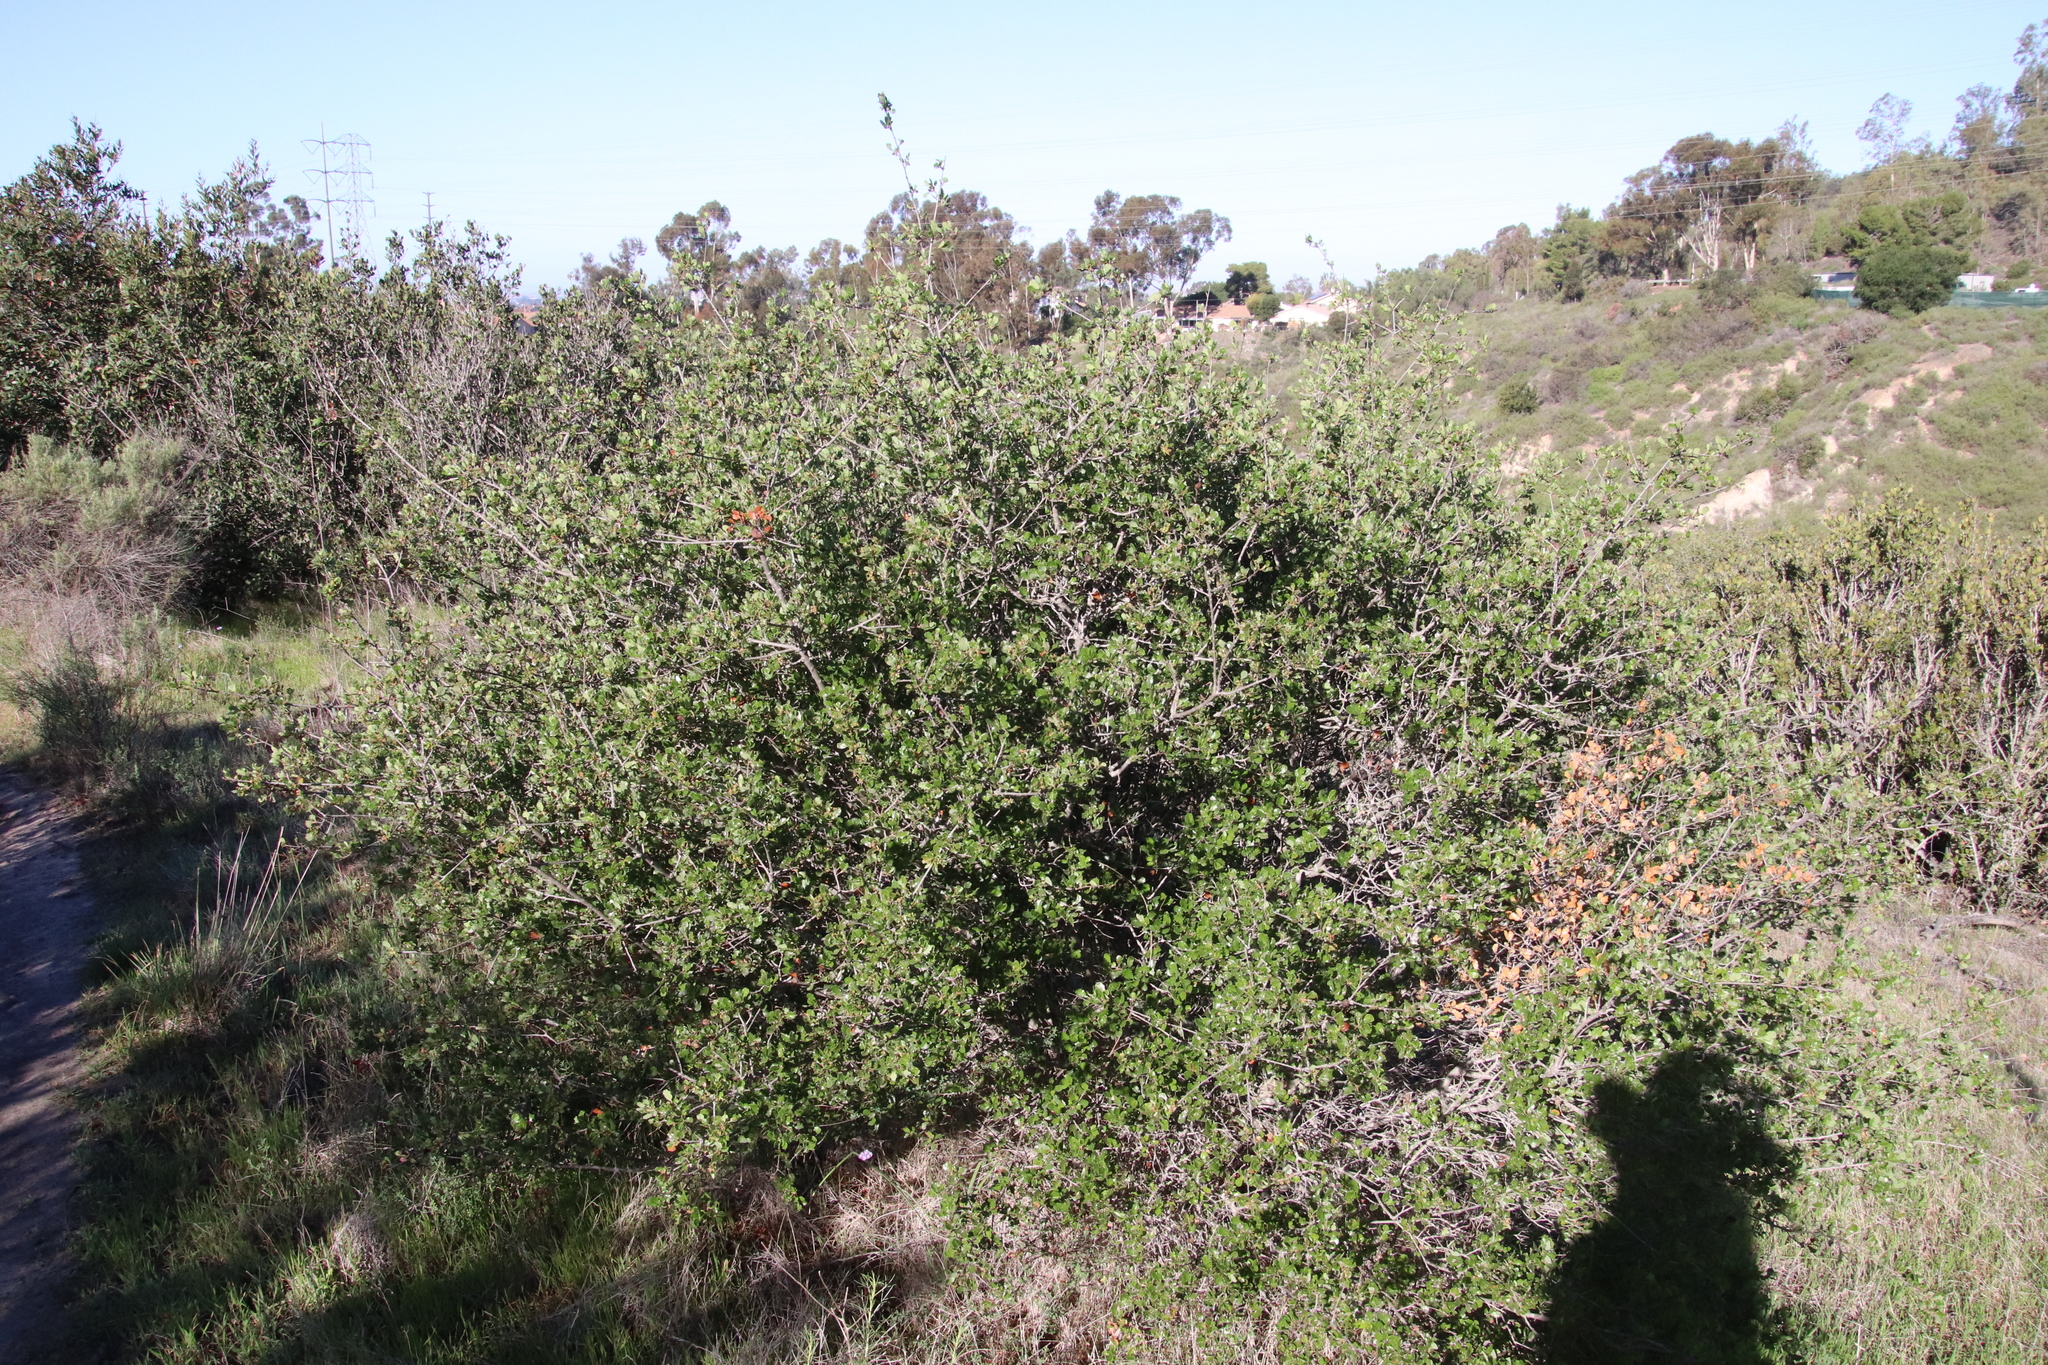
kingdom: Plantae
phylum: Tracheophyta
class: Magnoliopsida
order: Fagales
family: Fagaceae
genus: Quercus
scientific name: Quercus dumosa
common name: Coastal sage scrub oak
